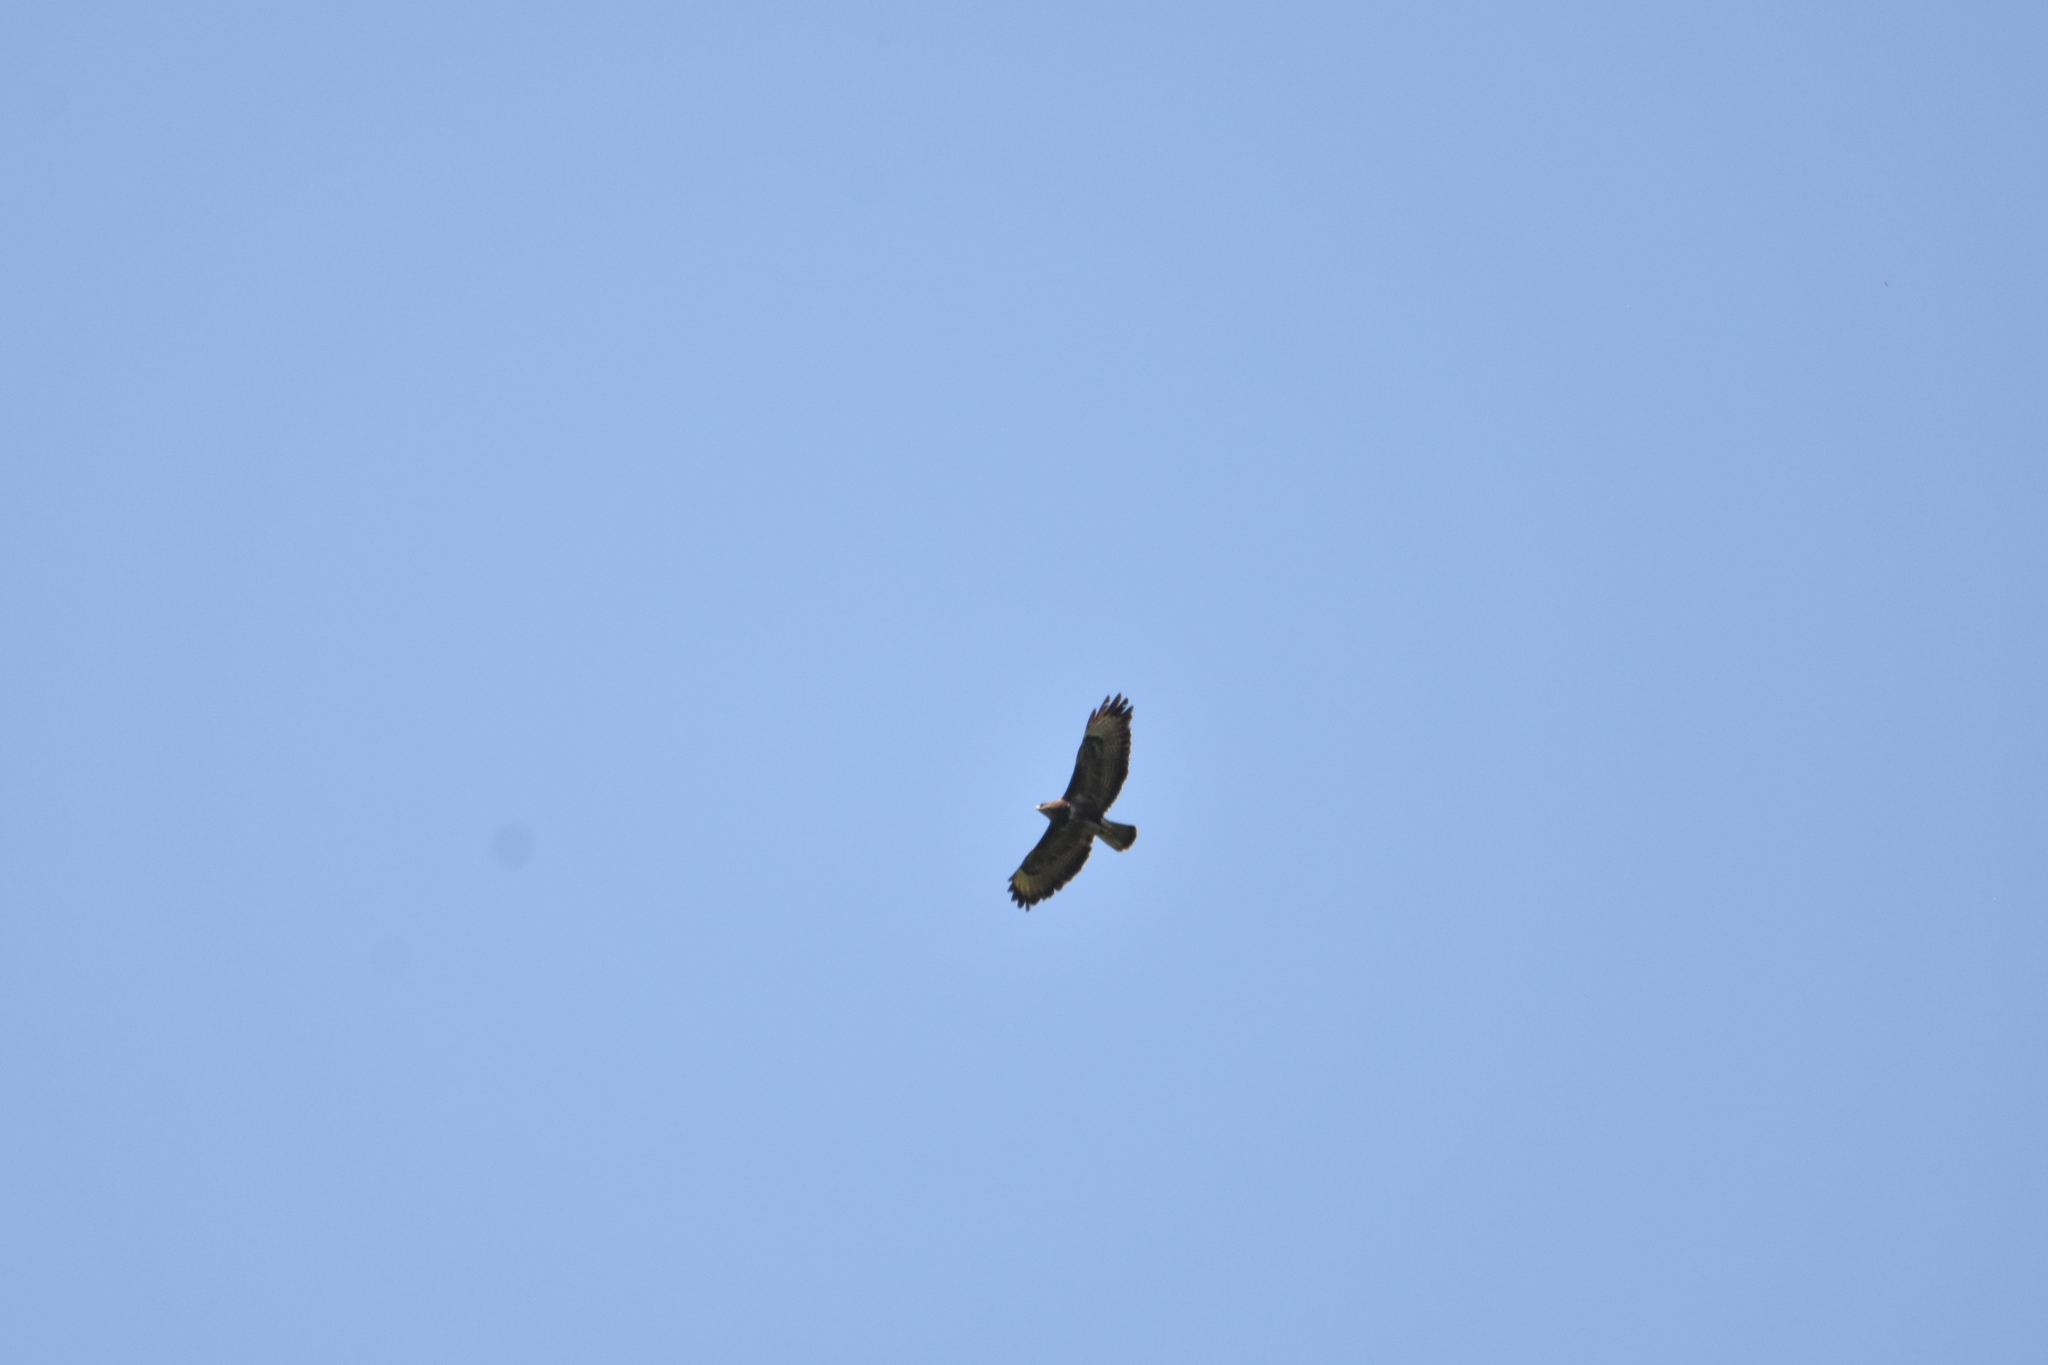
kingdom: Animalia
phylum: Chordata
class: Aves
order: Accipitriformes
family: Accipitridae
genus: Buteo
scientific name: Buteo buteo
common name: Common buzzard
